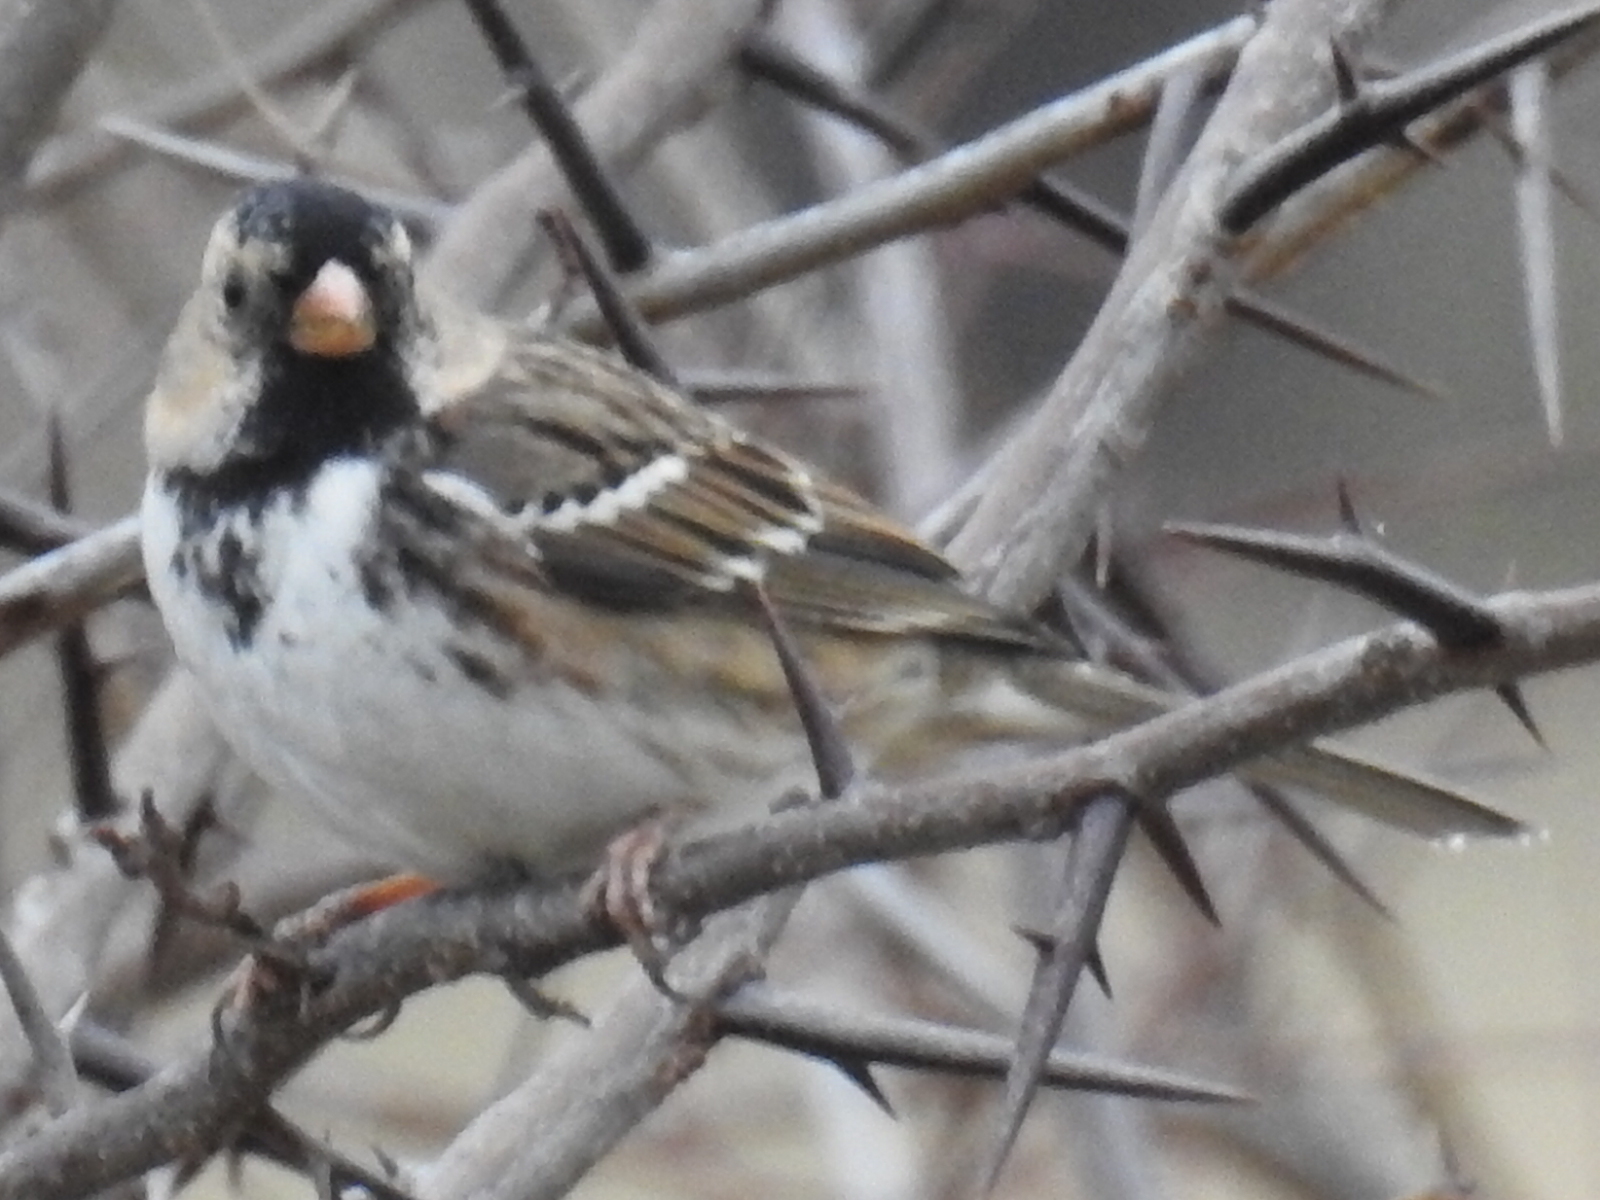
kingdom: Animalia
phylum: Chordata
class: Aves
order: Passeriformes
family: Passerellidae
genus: Zonotrichia
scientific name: Zonotrichia querula
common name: Harris's sparrow
